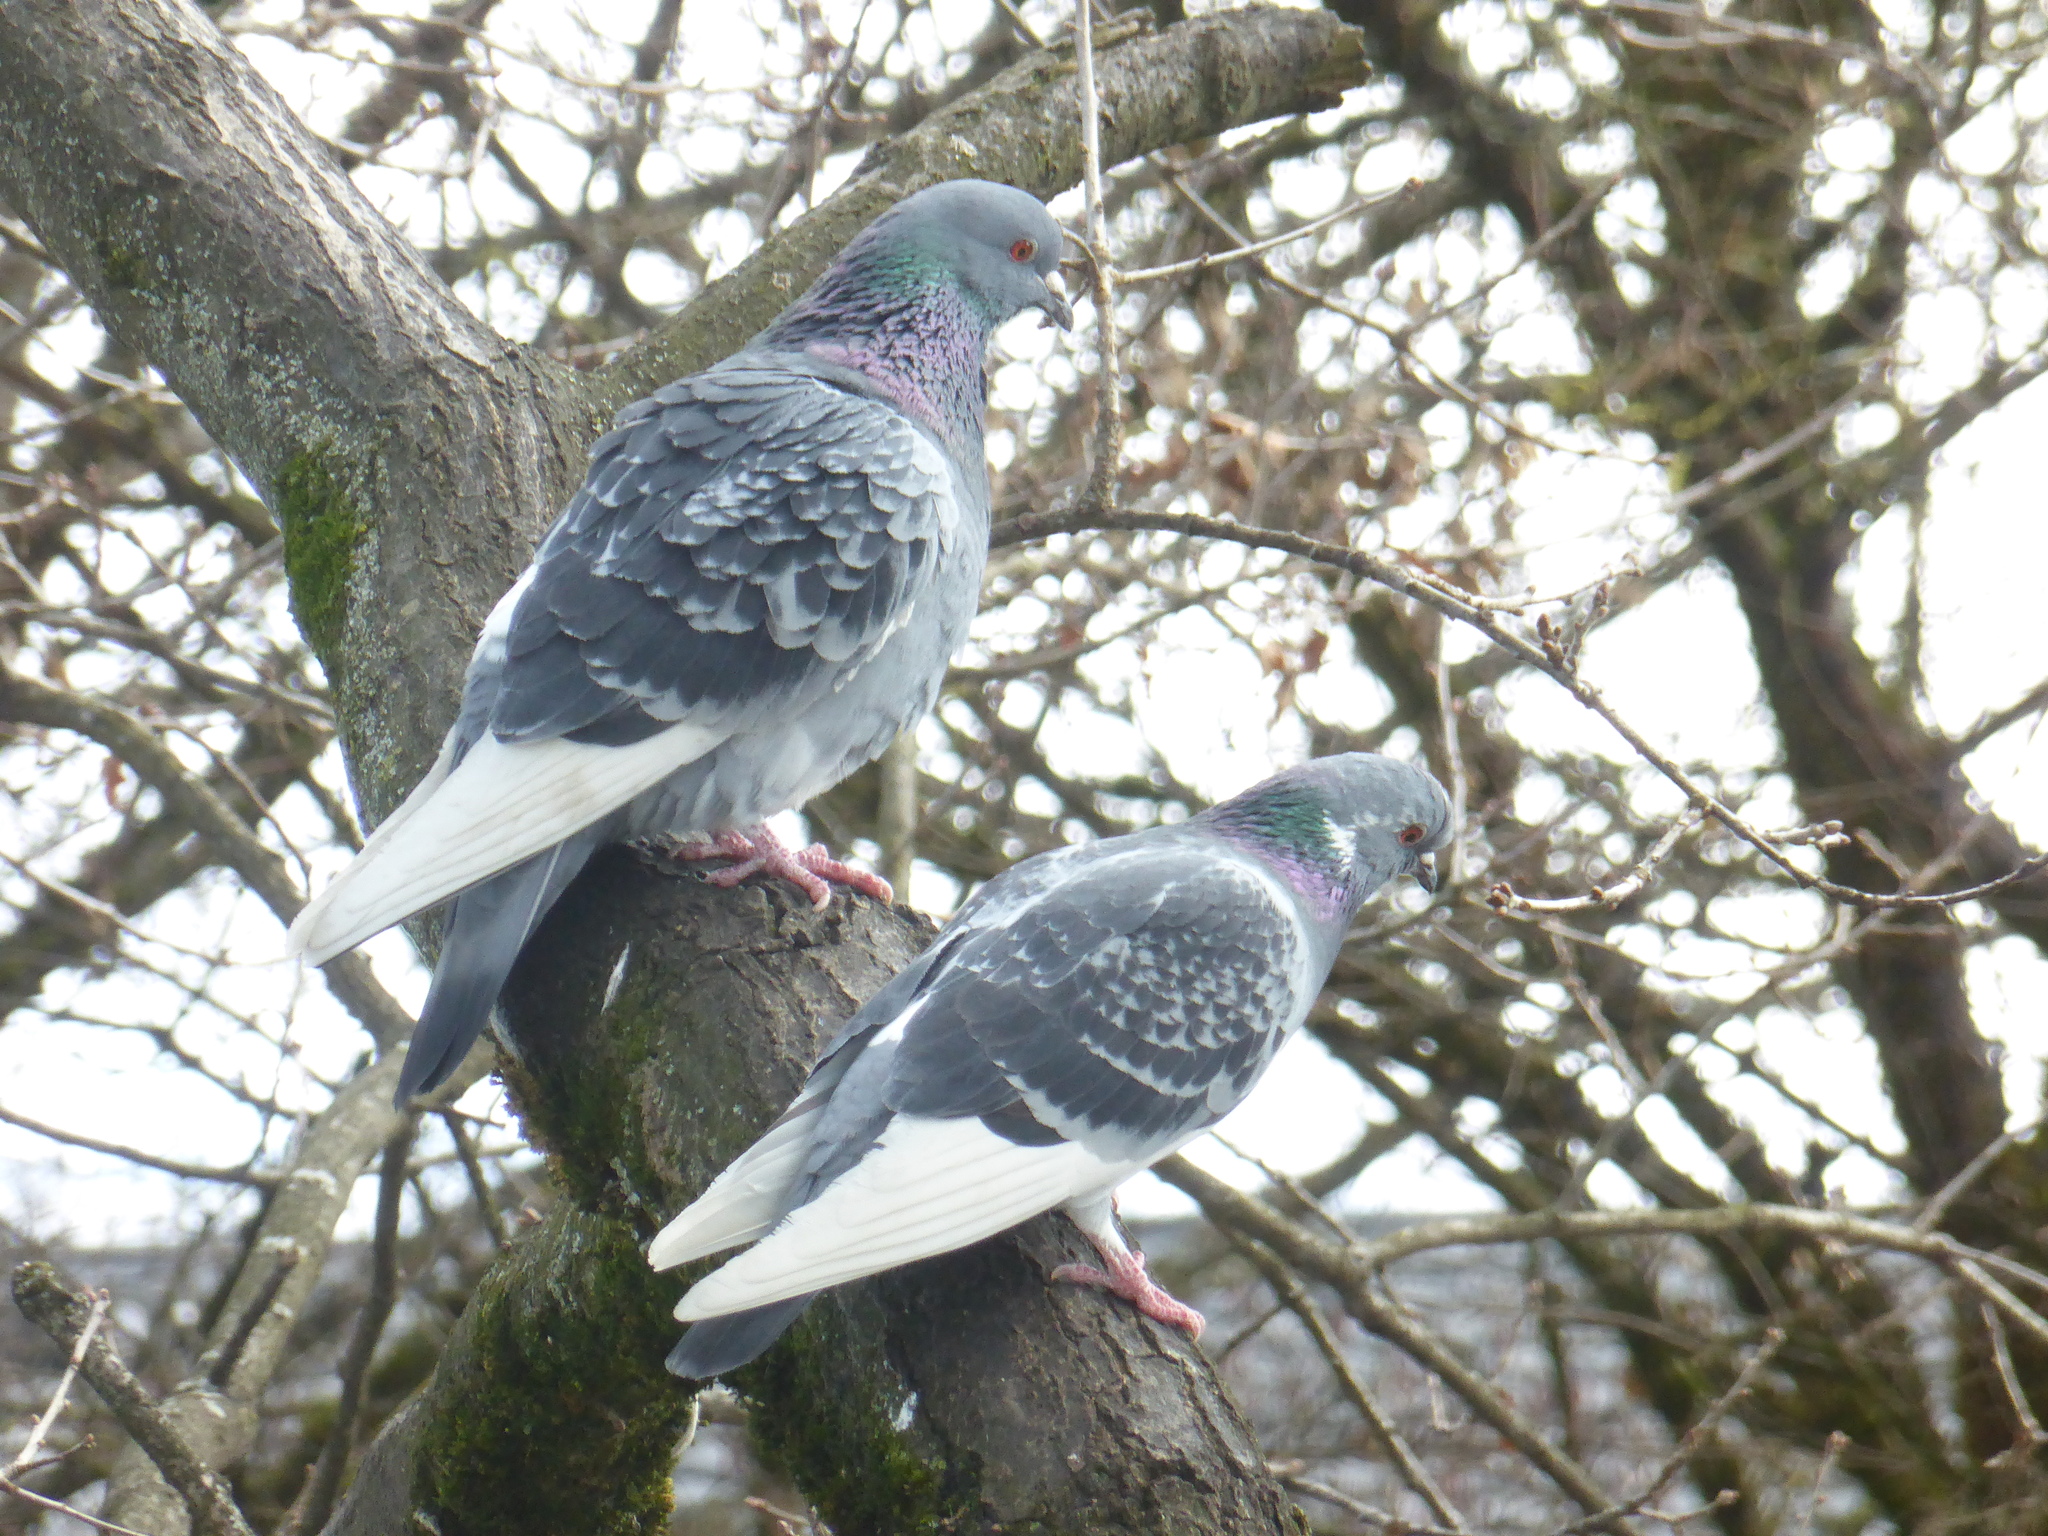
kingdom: Animalia
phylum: Chordata
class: Aves
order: Columbiformes
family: Columbidae
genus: Columba
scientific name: Columba livia
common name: Rock pigeon
